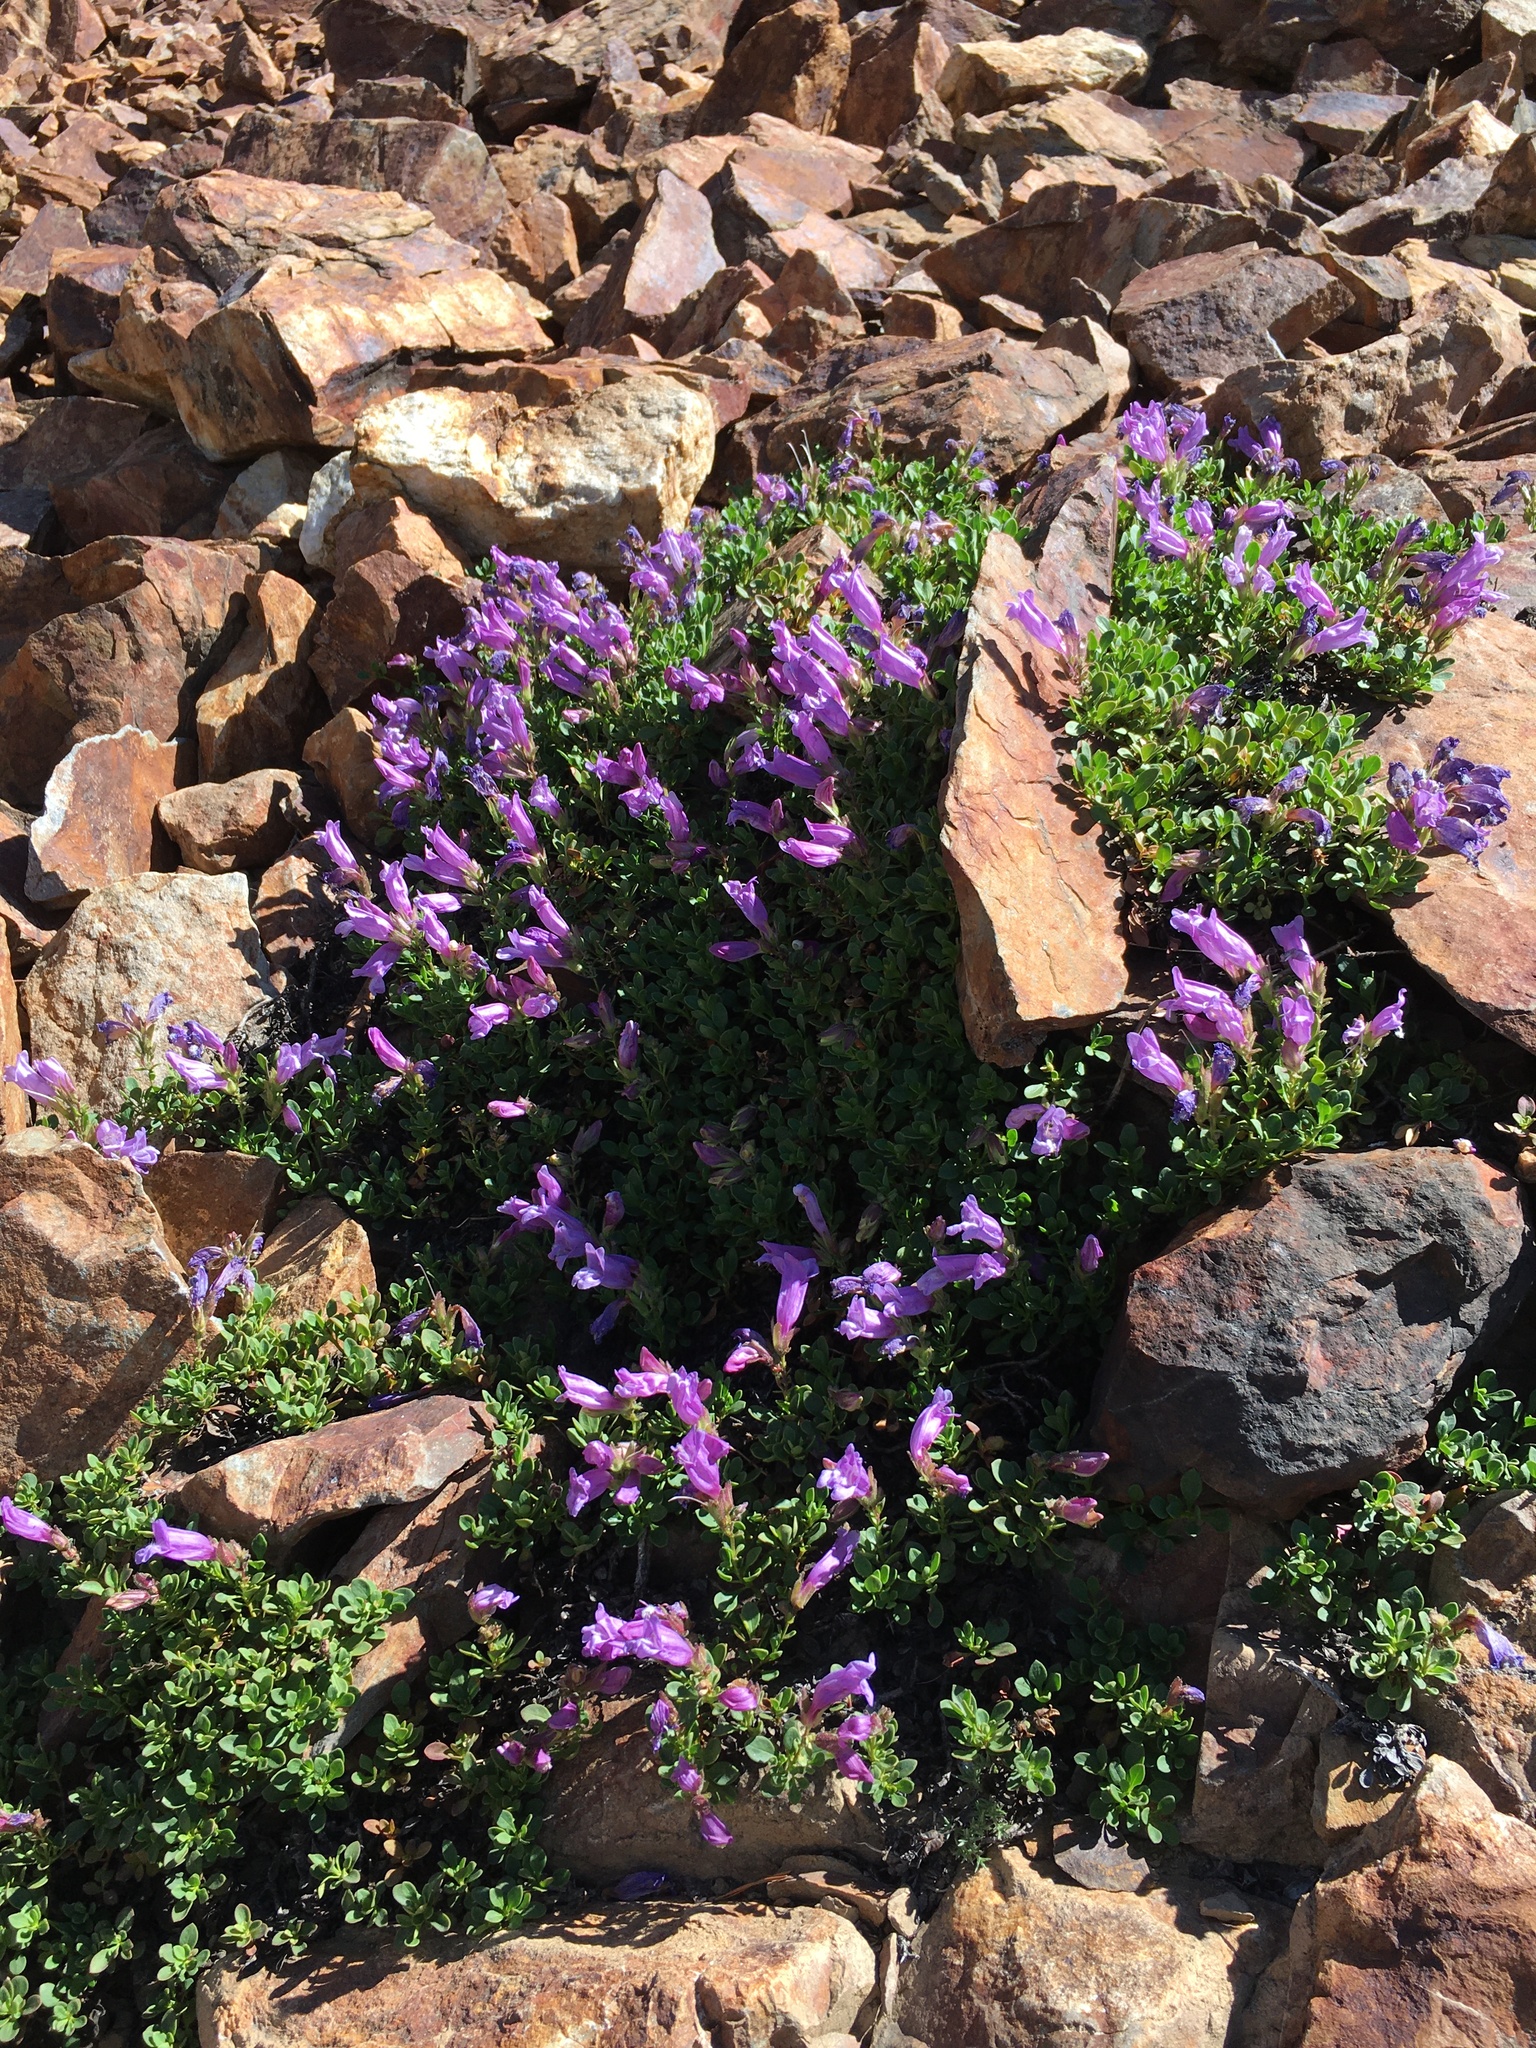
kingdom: Plantae
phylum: Tracheophyta
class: Magnoliopsida
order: Lamiales
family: Plantaginaceae
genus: Penstemon
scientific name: Penstemon davidsonii
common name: Davidson's penstemon
